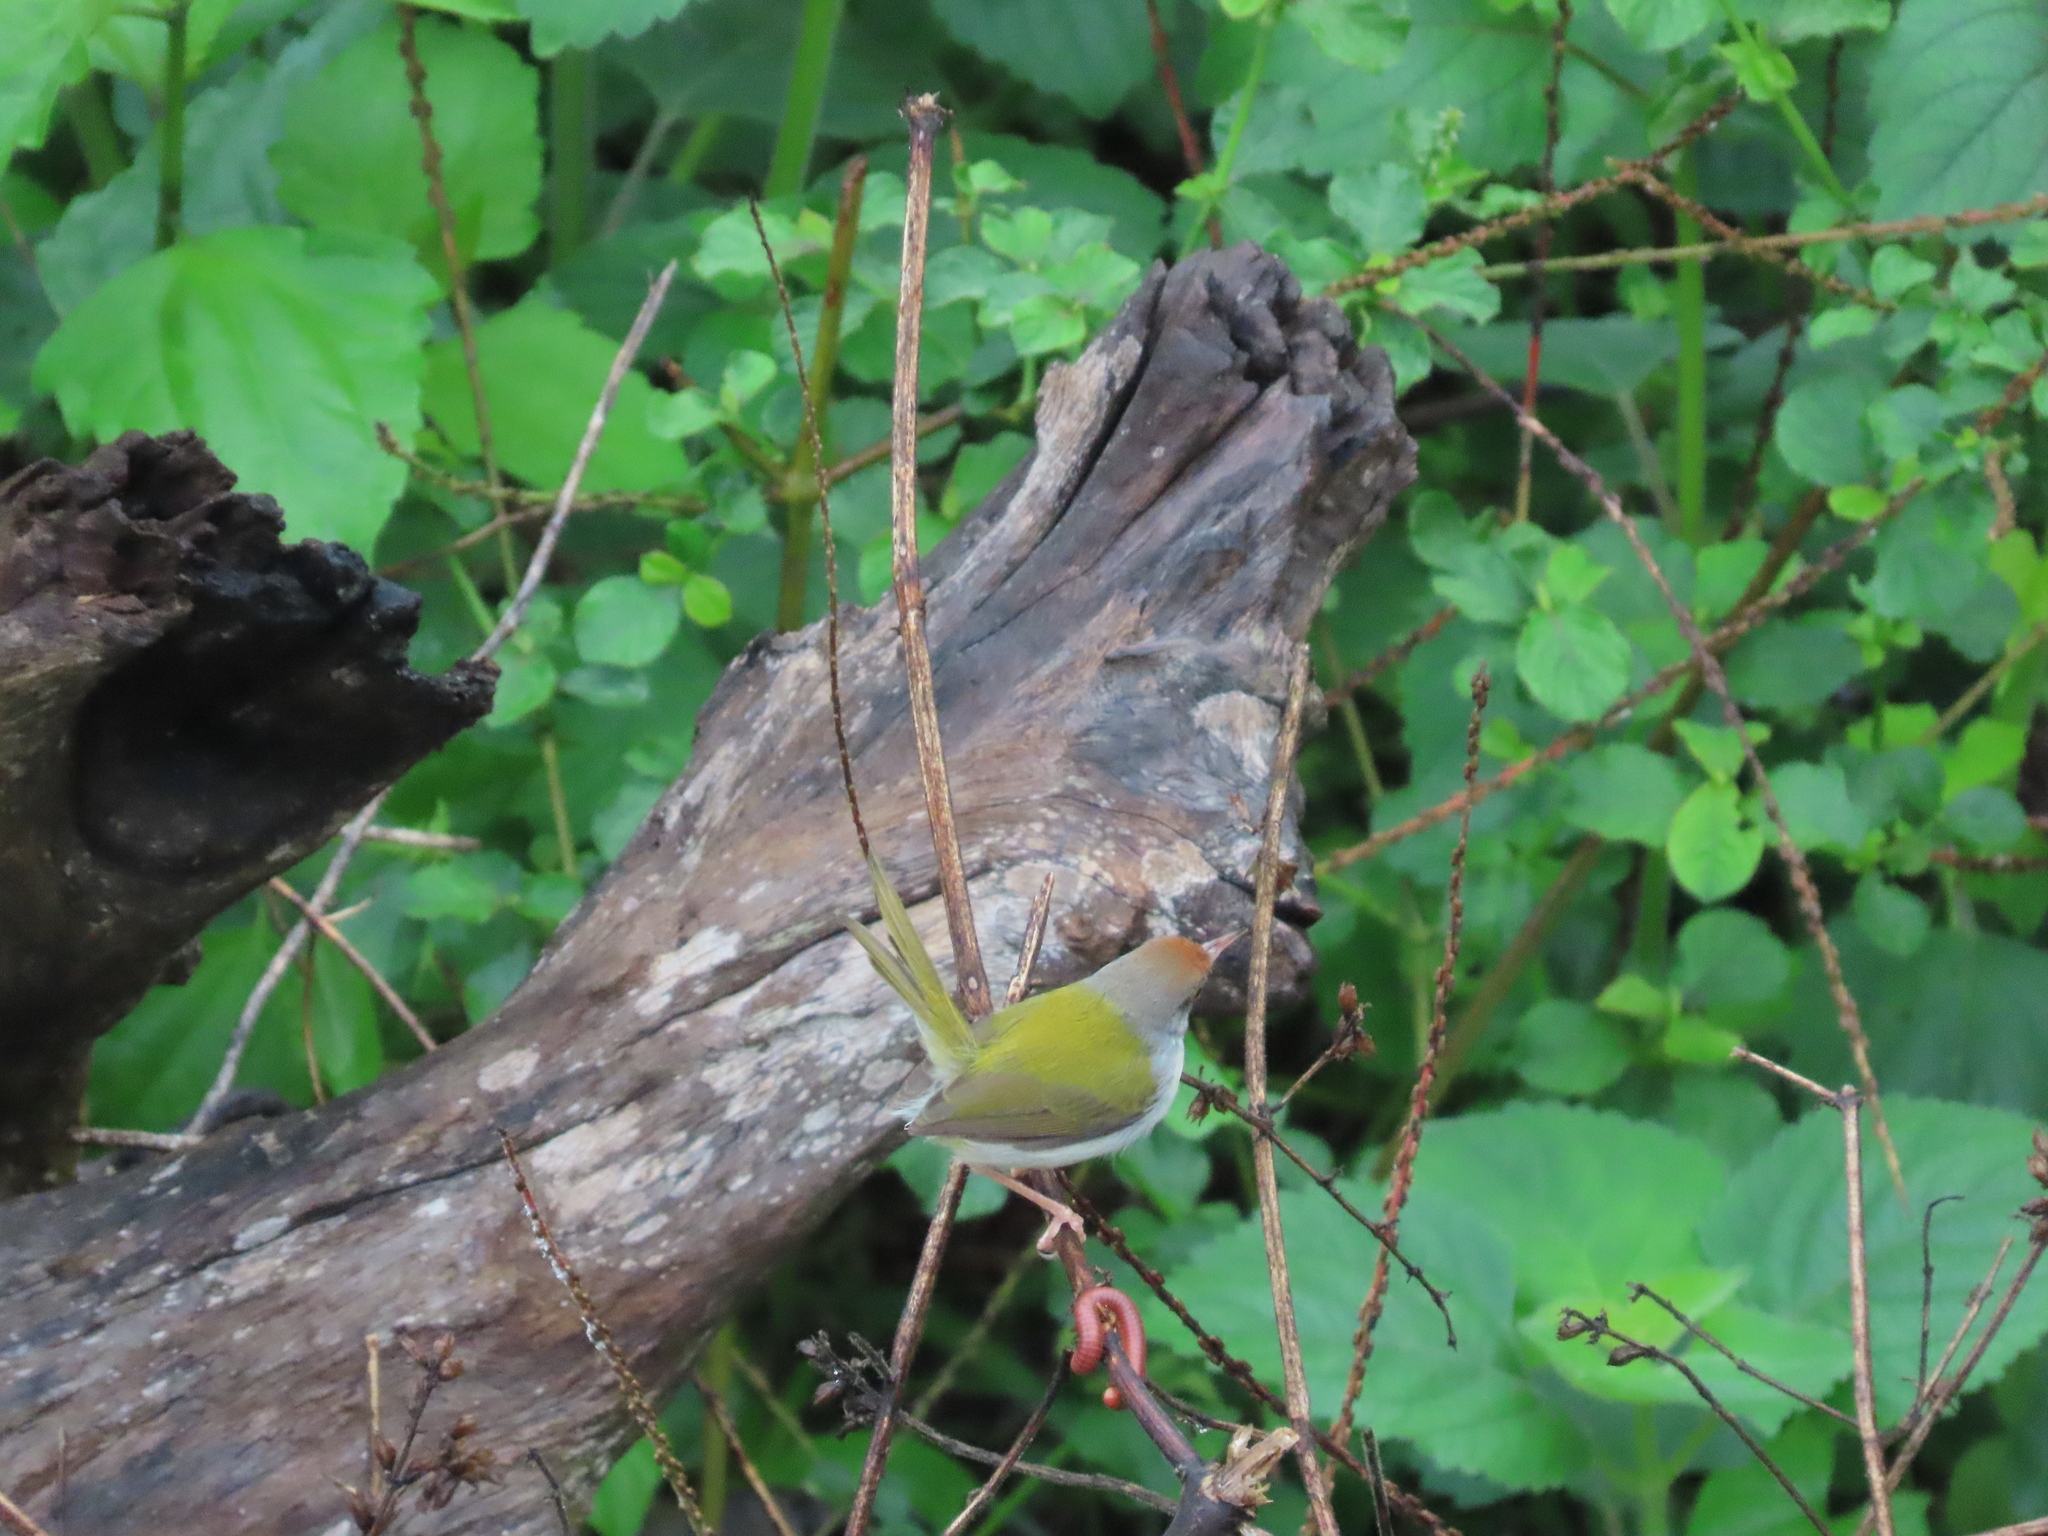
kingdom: Animalia
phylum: Chordata
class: Aves
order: Passeriformes
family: Cisticolidae
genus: Orthotomus
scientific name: Orthotomus sutorius
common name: Common tailorbird
